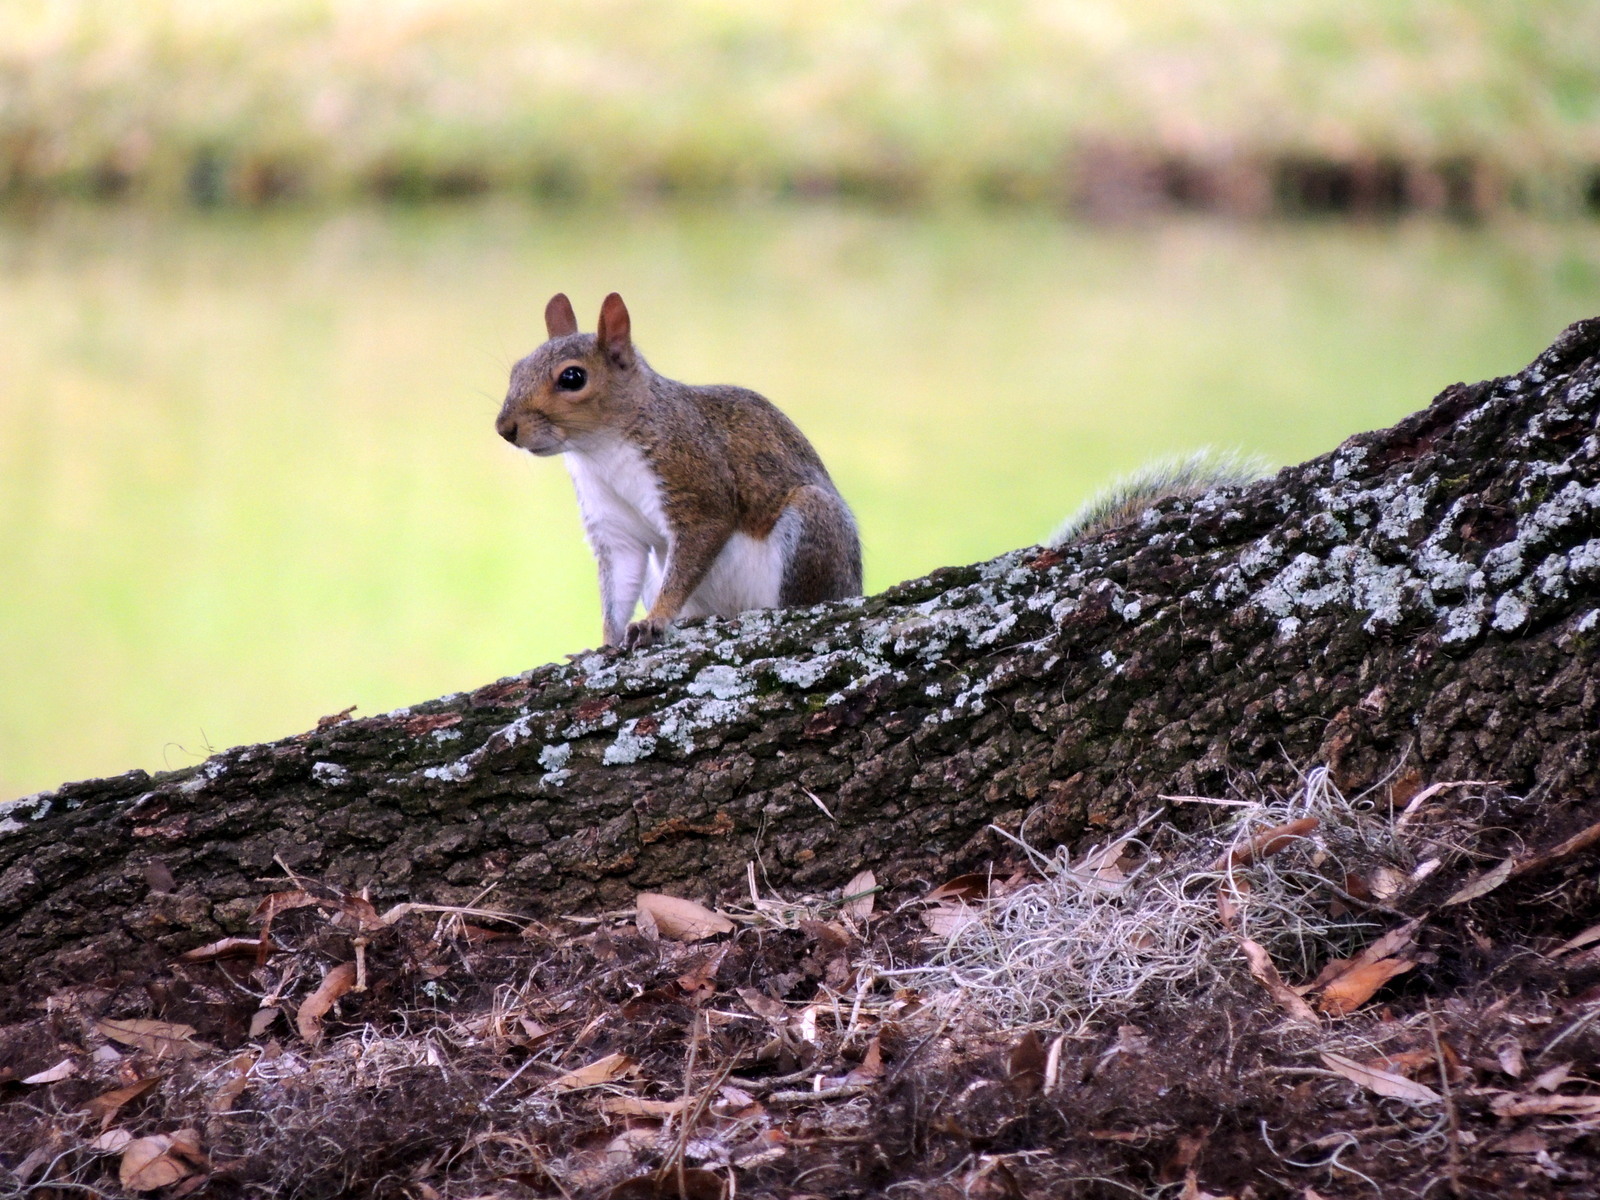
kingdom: Animalia
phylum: Chordata
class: Mammalia
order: Rodentia
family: Sciuridae
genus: Sciurus
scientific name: Sciurus carolinensis
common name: Eastern gray squirrel
